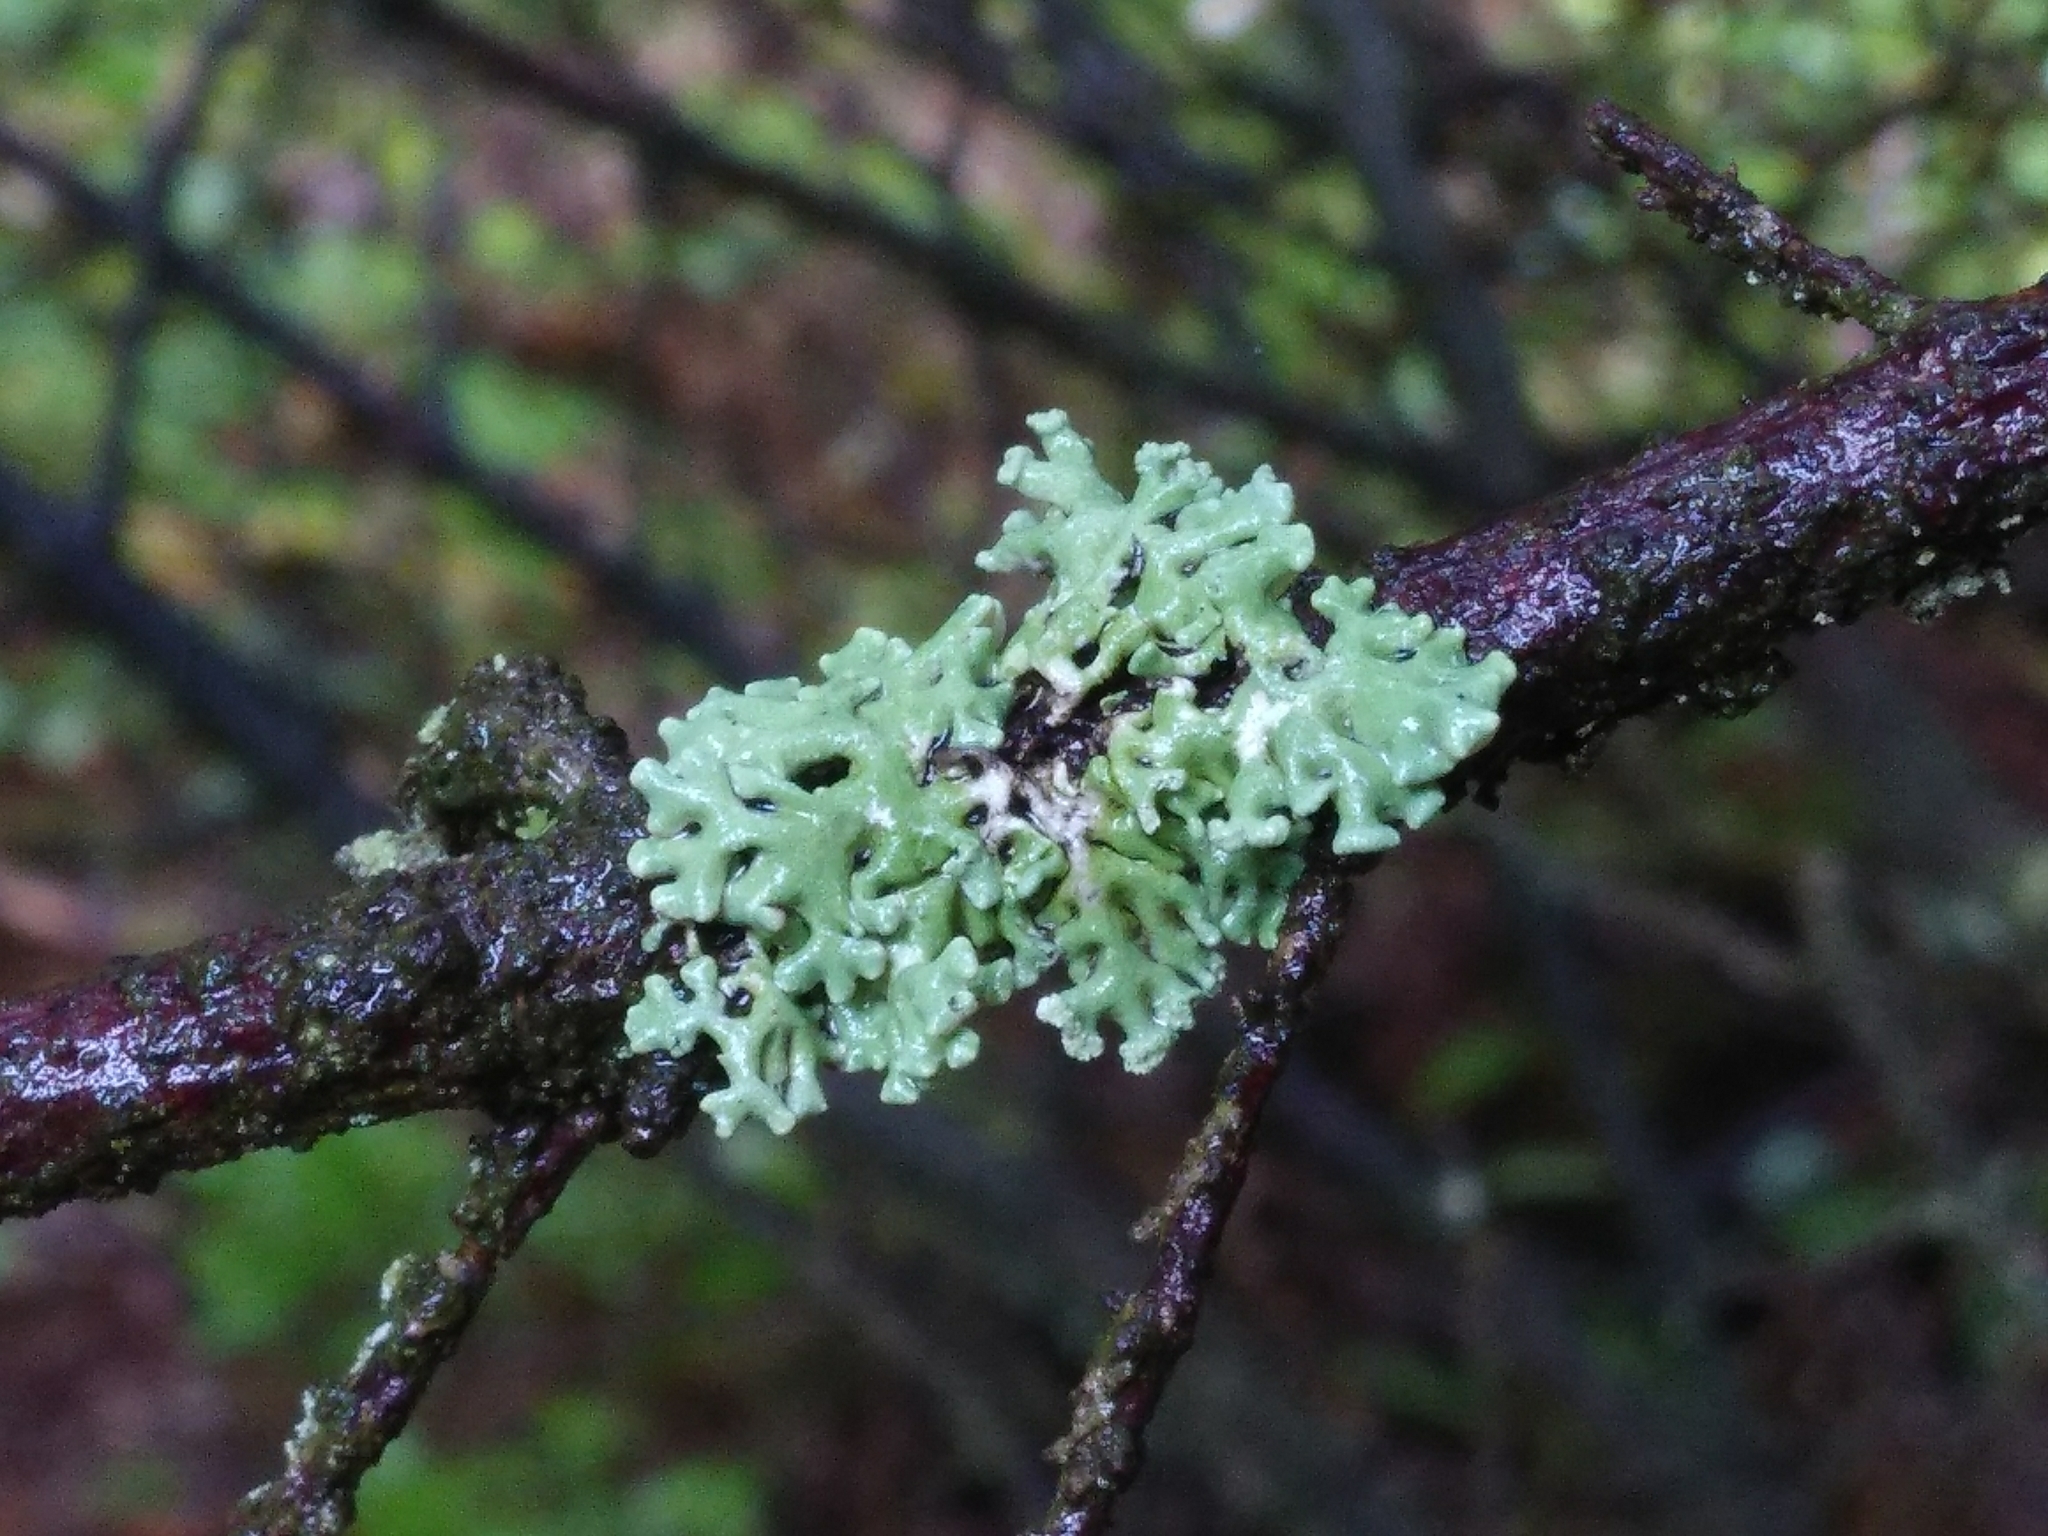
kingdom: Fungi
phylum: Ascomycota
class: Lecanoromycetes
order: Lecanorales
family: Parmeliaceae
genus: Hypogymnia
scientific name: Hypogymnia physodes
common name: Dark crottle
